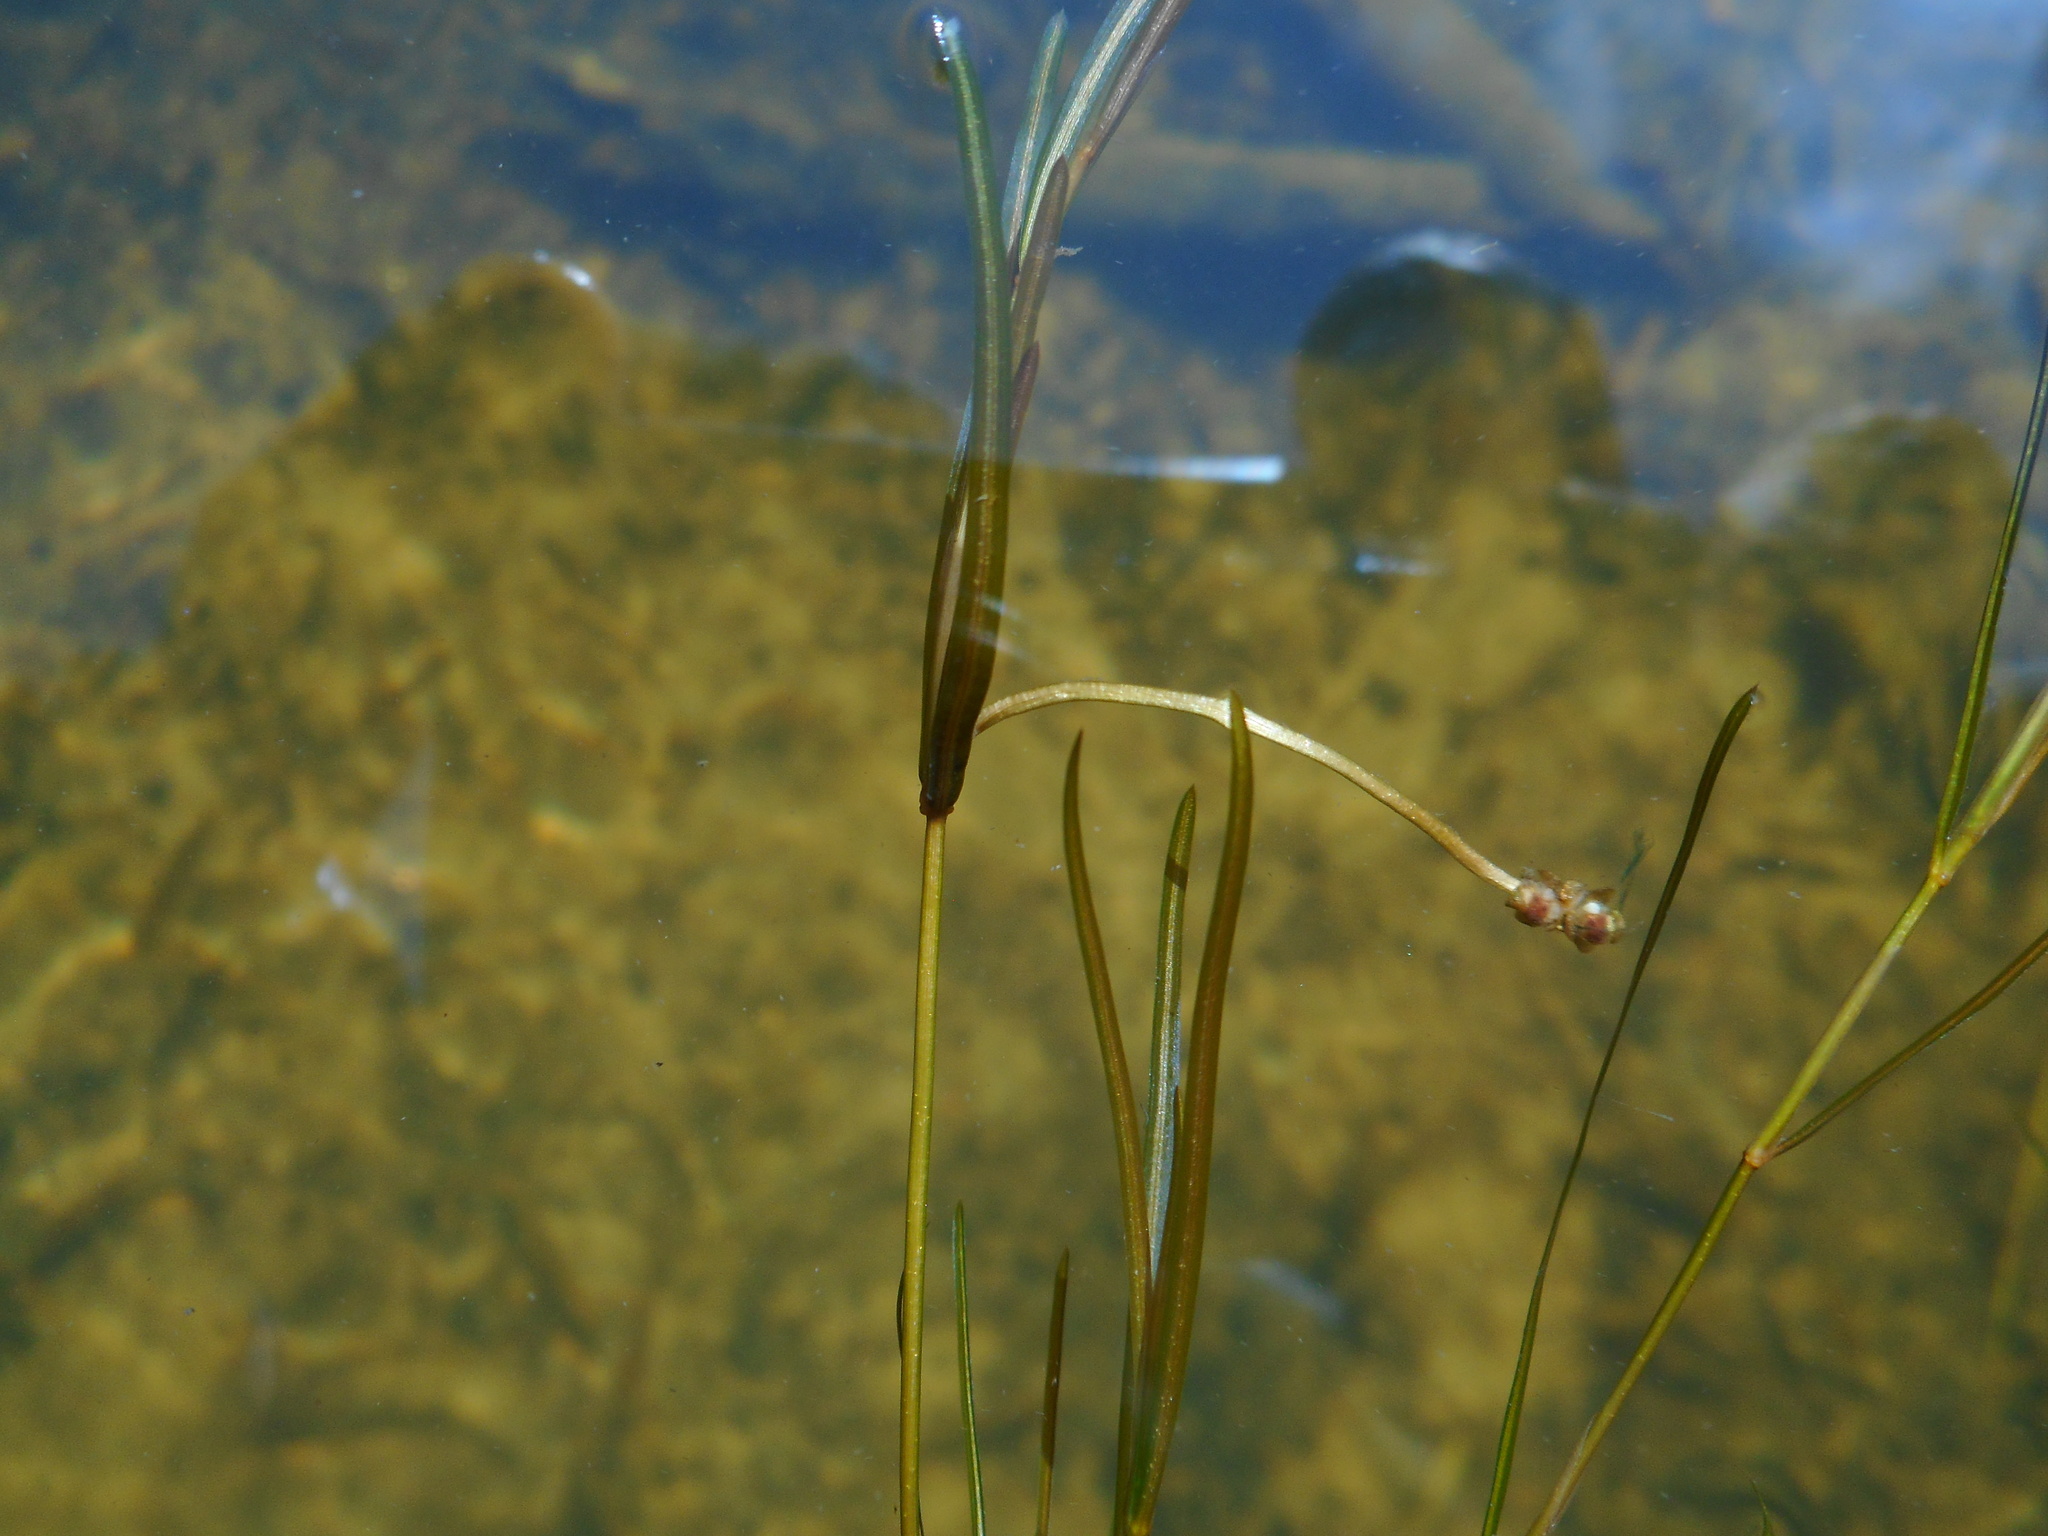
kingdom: Plantae
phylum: Tracheophyta
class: Liliopsida
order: Alismatales
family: Potamogetonaceae
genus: Potamogeton
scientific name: Potamogeton berchtoldii
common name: Small pondweed
